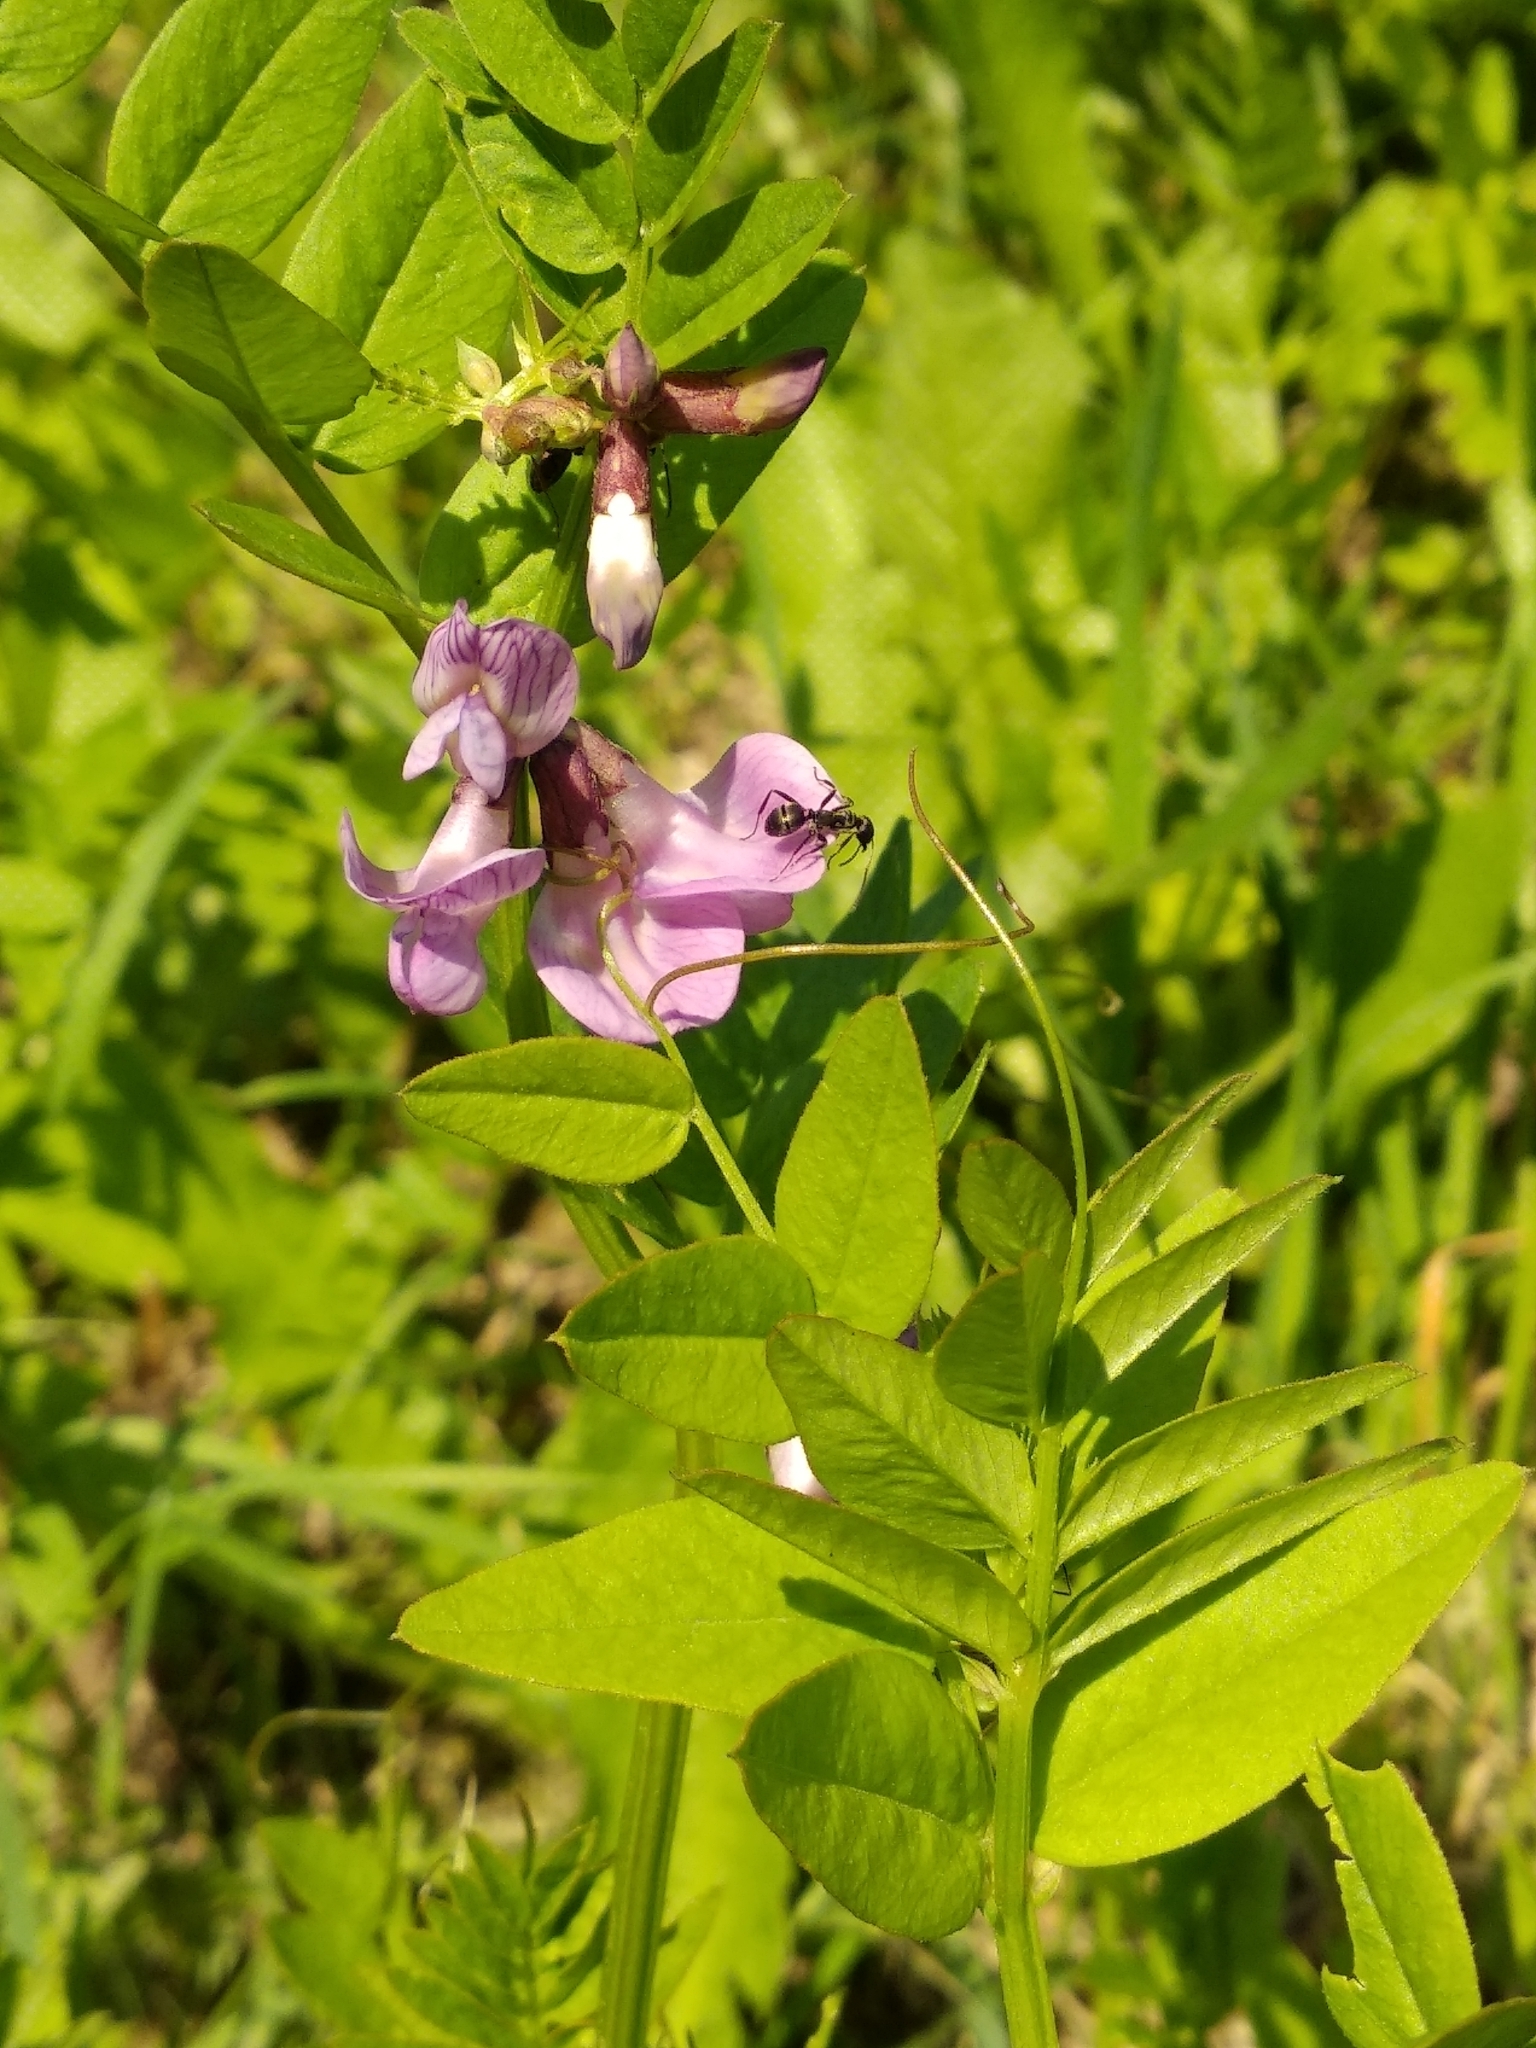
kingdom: Plantae
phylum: Tracheophyta
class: Magnoliopsida
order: Fabales
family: Fabaceae
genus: Vicia
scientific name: Vicia sepium
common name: Bush vetch
